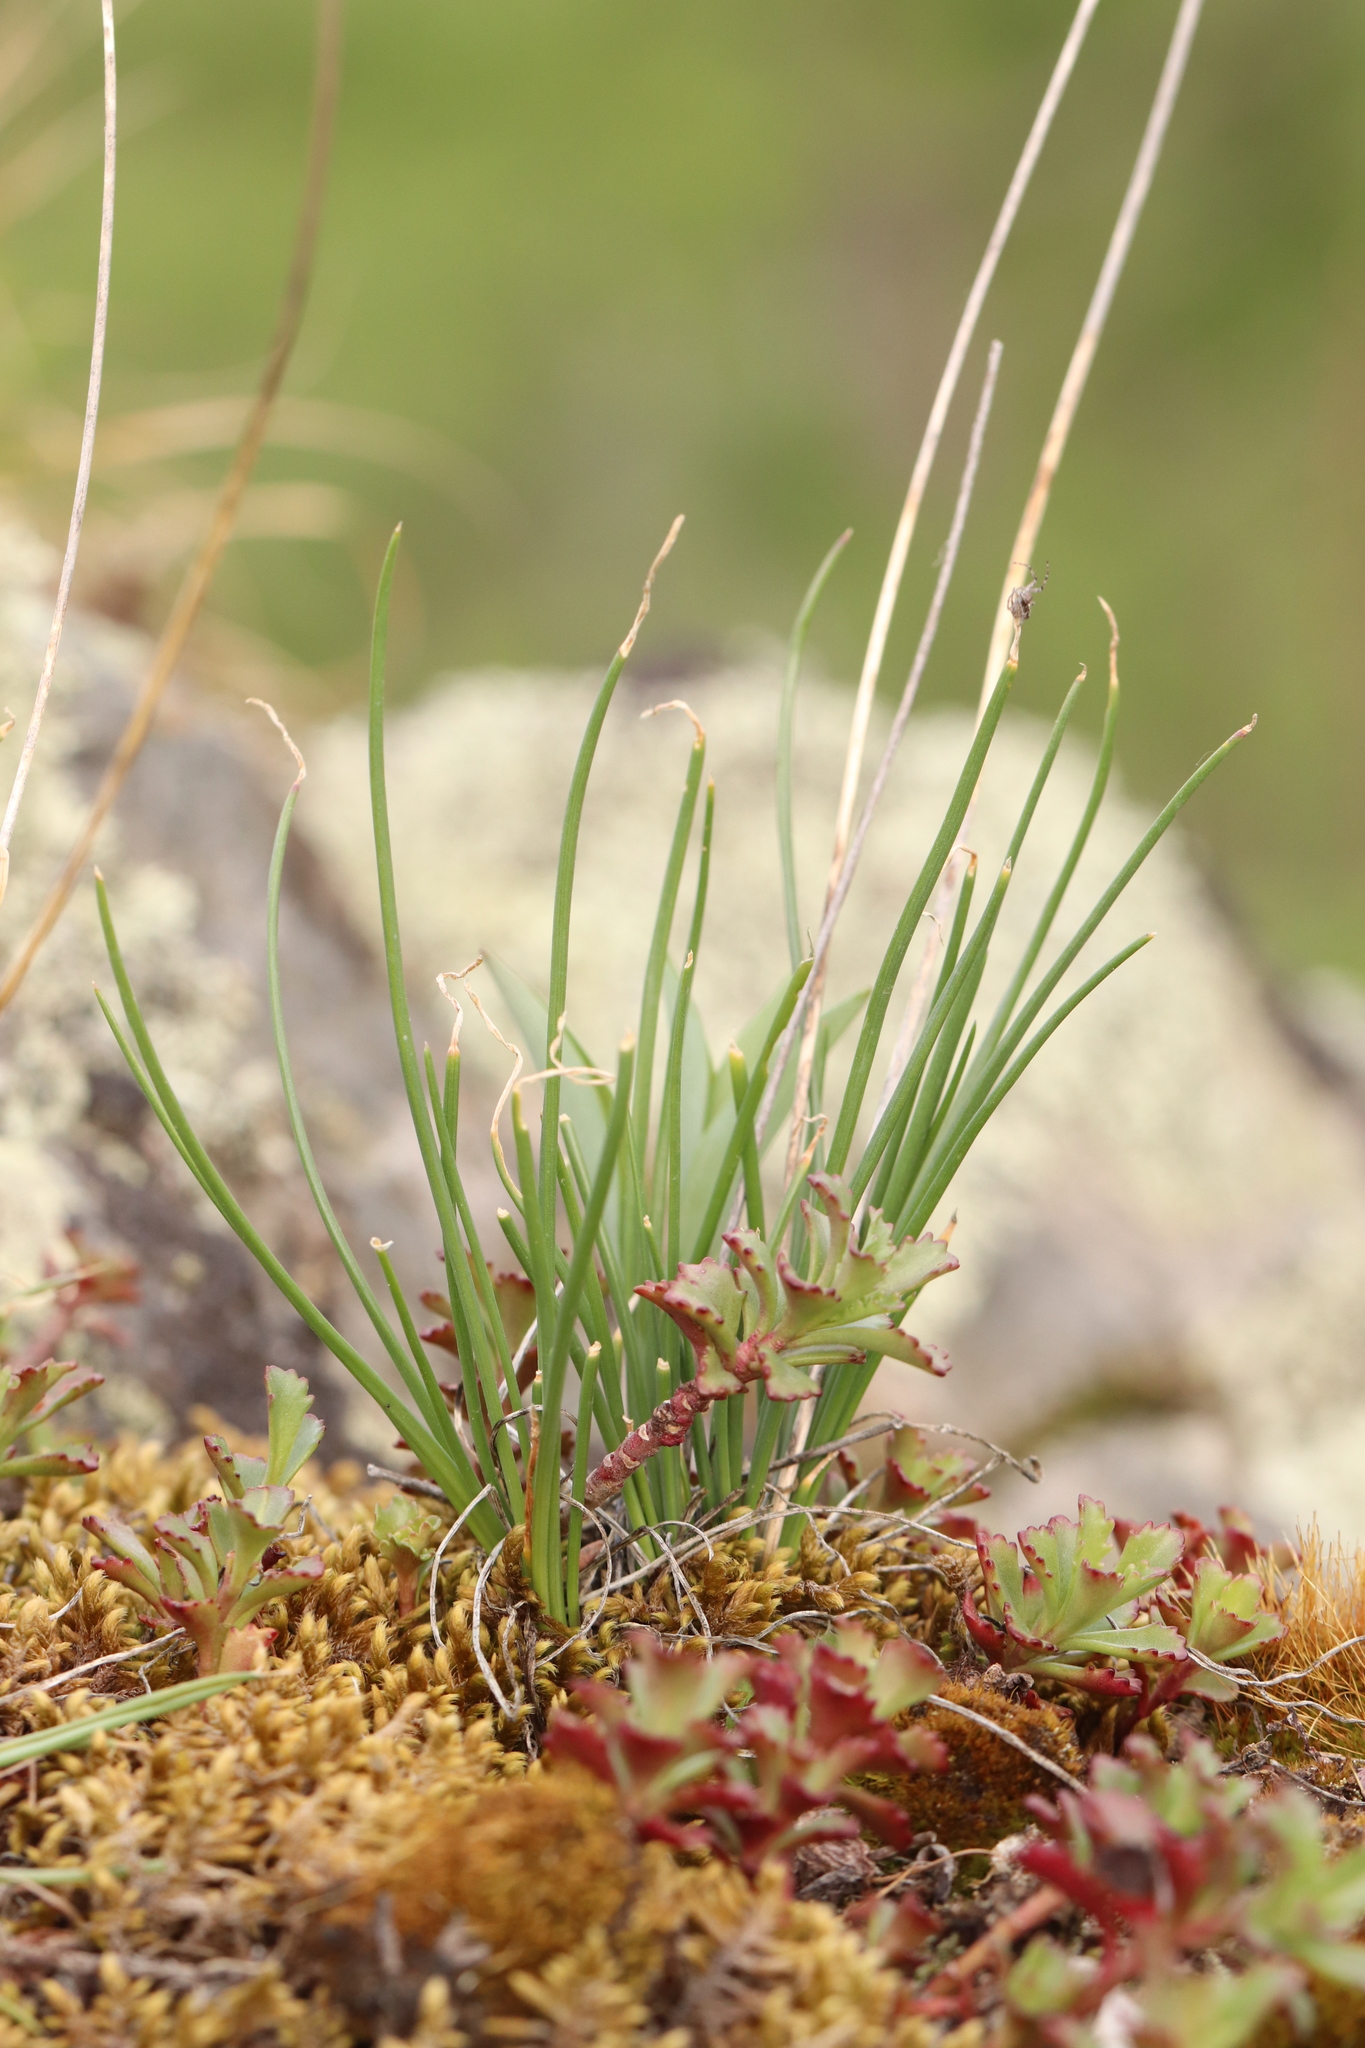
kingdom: Plantae
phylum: Tracheophyta
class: Liliopsida
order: Asparagales
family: Amaryllidaceae
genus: Allium
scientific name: Allium rubens
